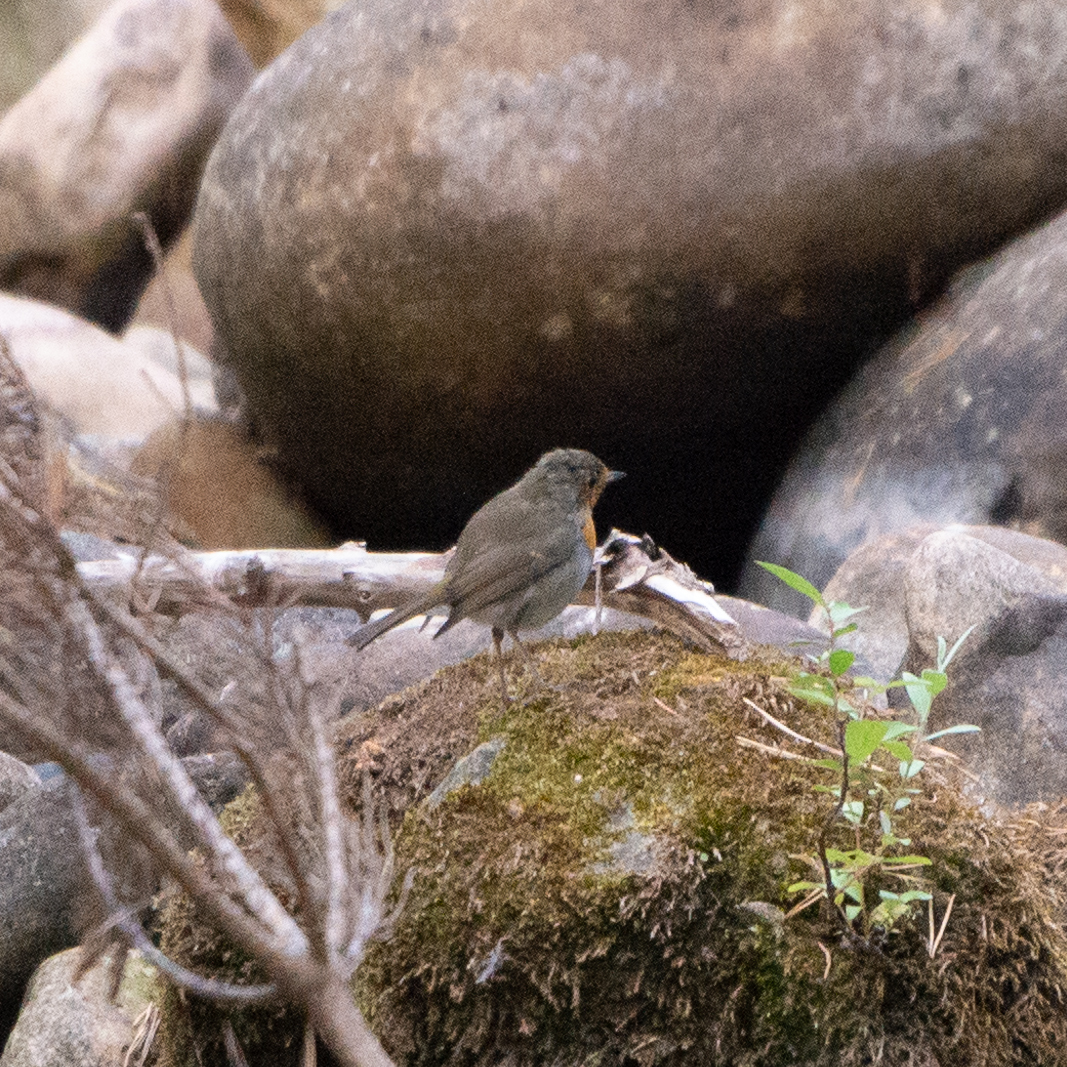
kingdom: Animalia
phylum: Chordata
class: Aves
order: Passeriformes
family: Muscicapidae
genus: Erithacus
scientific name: Erithacus rubecula
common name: European robin
